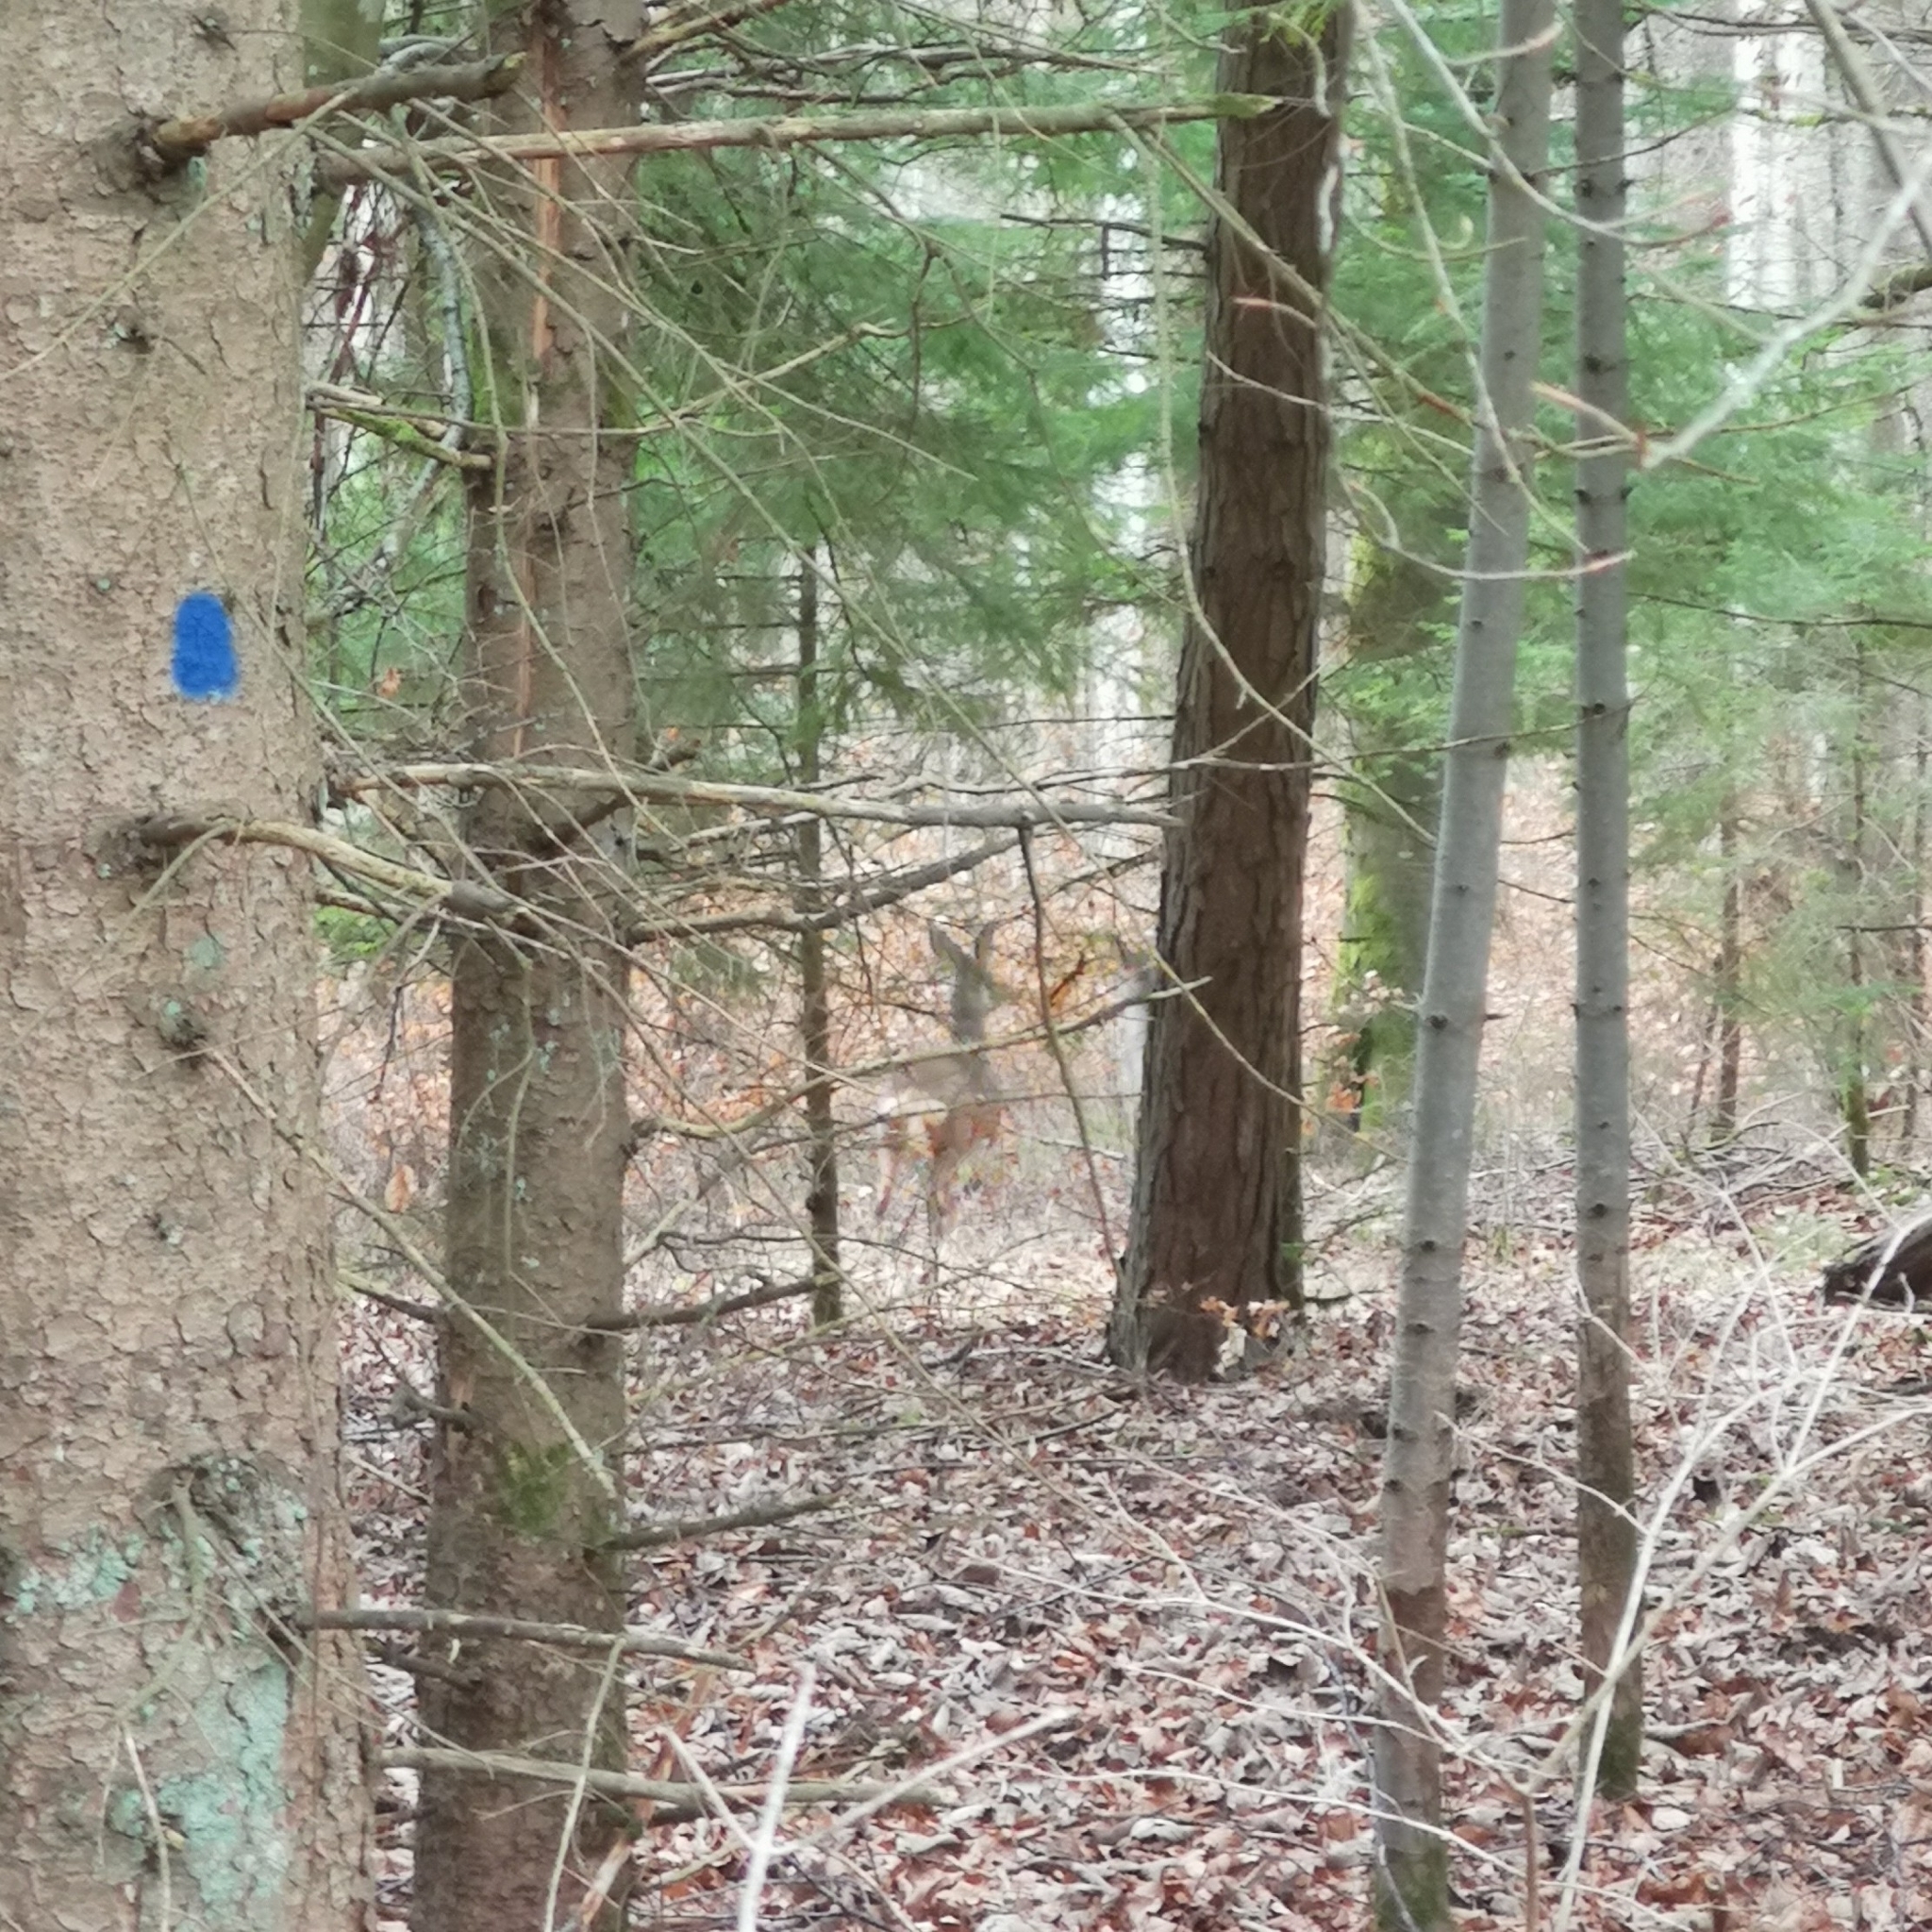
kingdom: Animalia
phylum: Chordata
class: Mammalia
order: Artiodactyla
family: Cervidae
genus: Capreolus
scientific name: Capreolus capreolus
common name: Western roe deer
